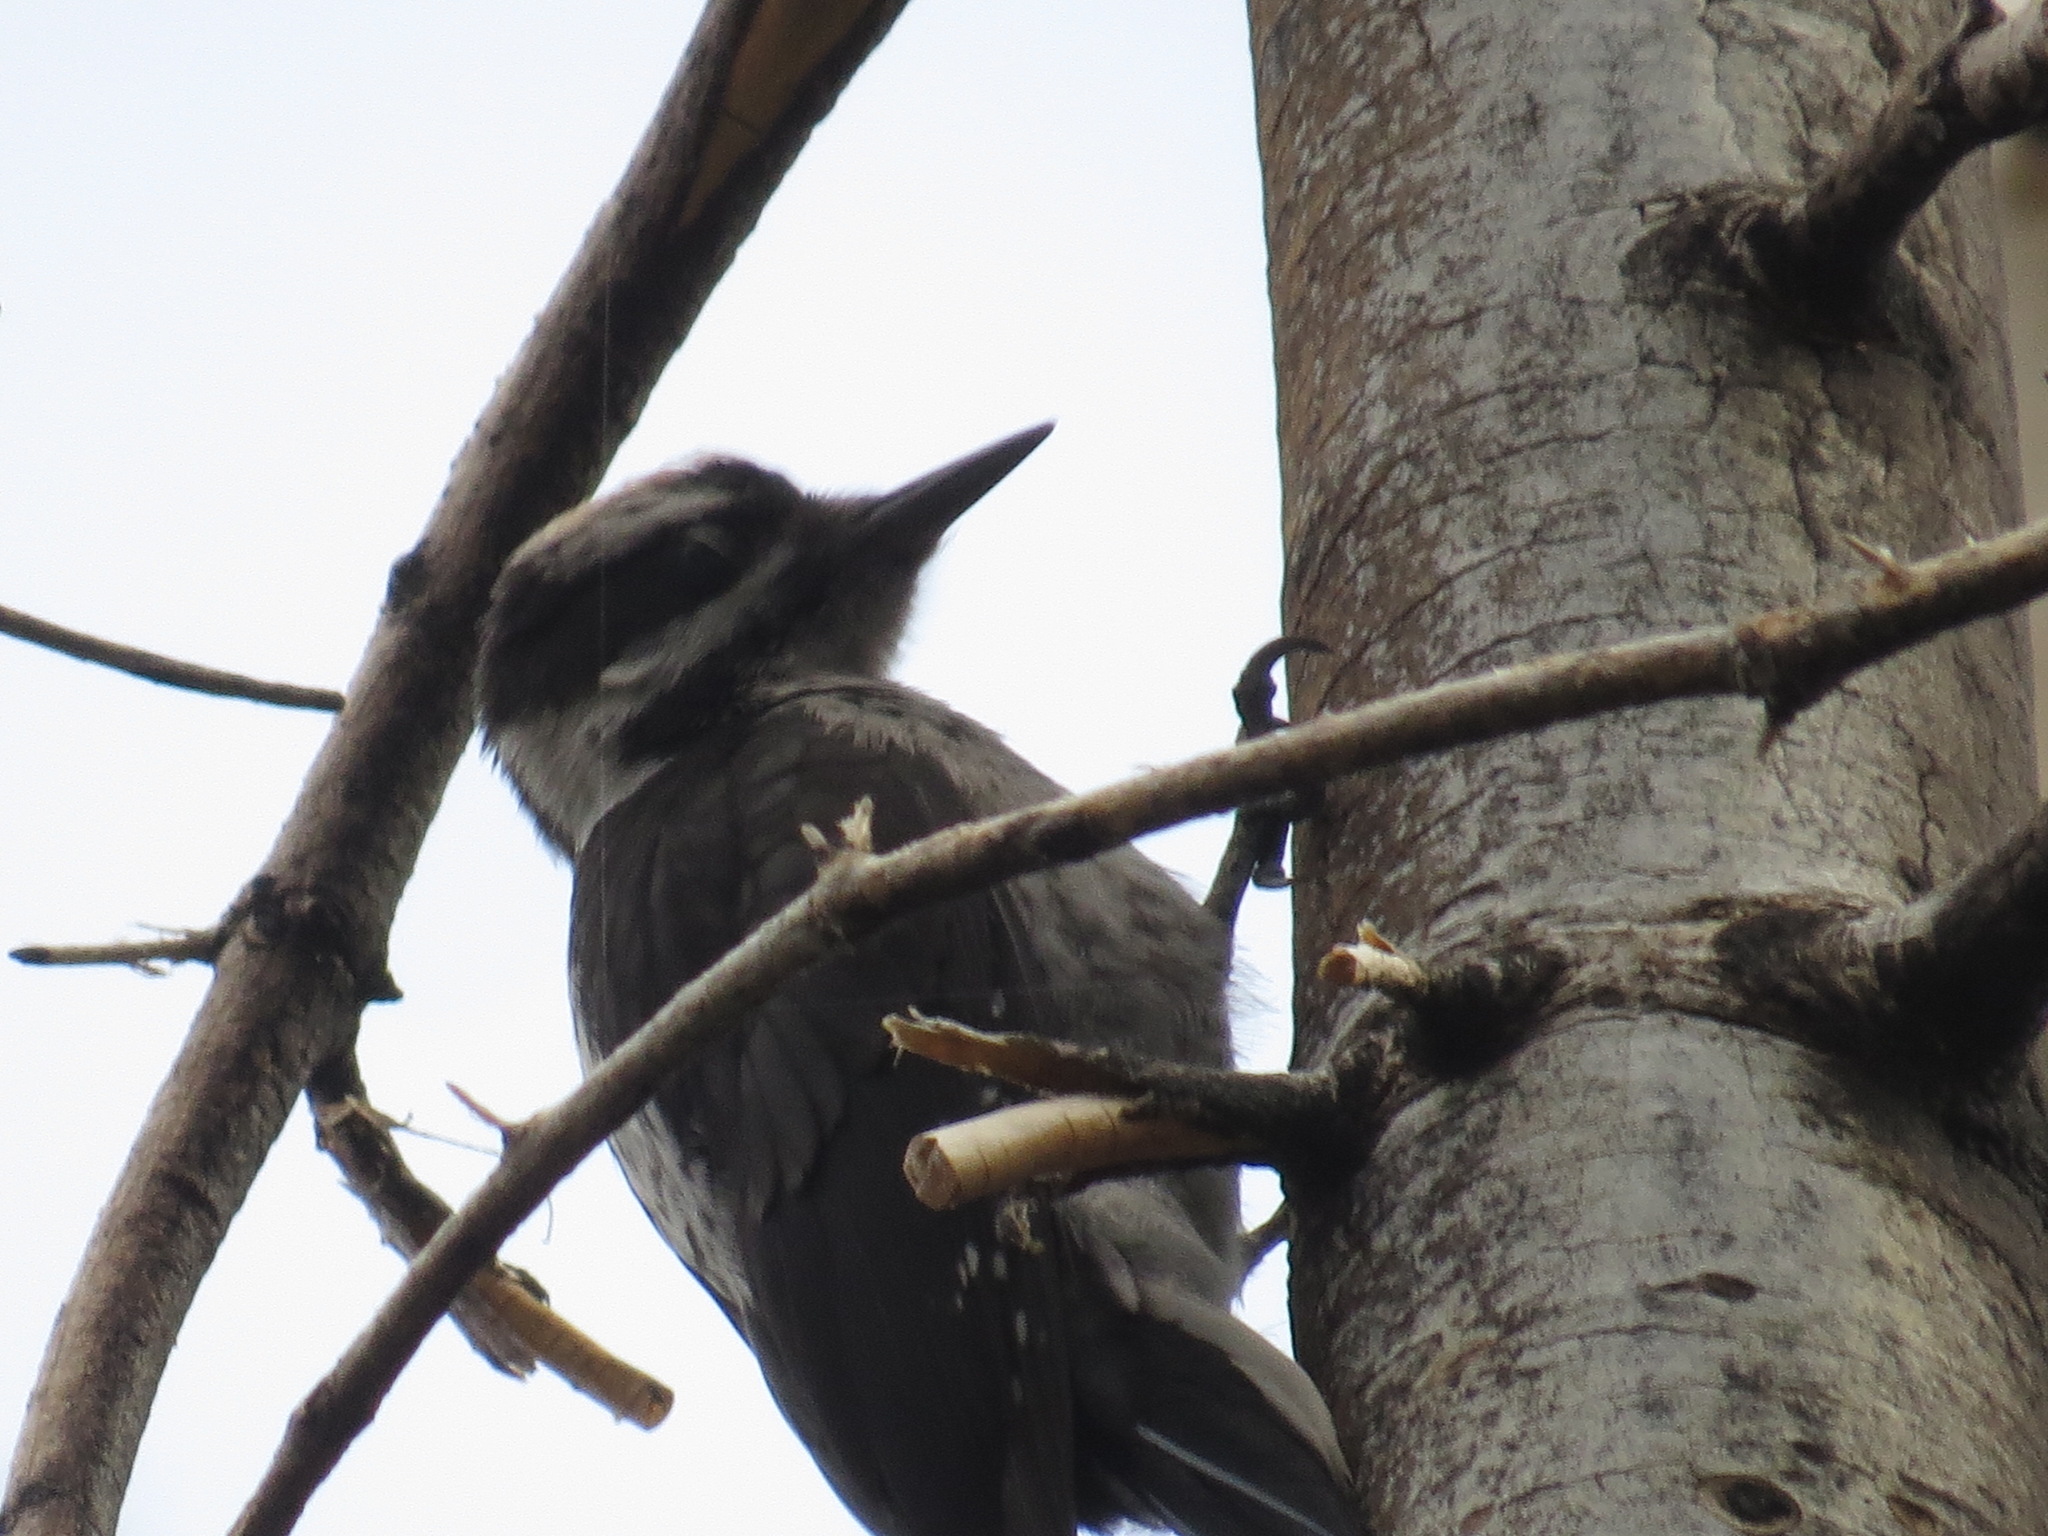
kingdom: Animalia
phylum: Chordata
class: Aves
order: Piciformes
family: Picidae
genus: Leuconotopicus
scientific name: Leuconotopicus villosus
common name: Hairy woodpecker
